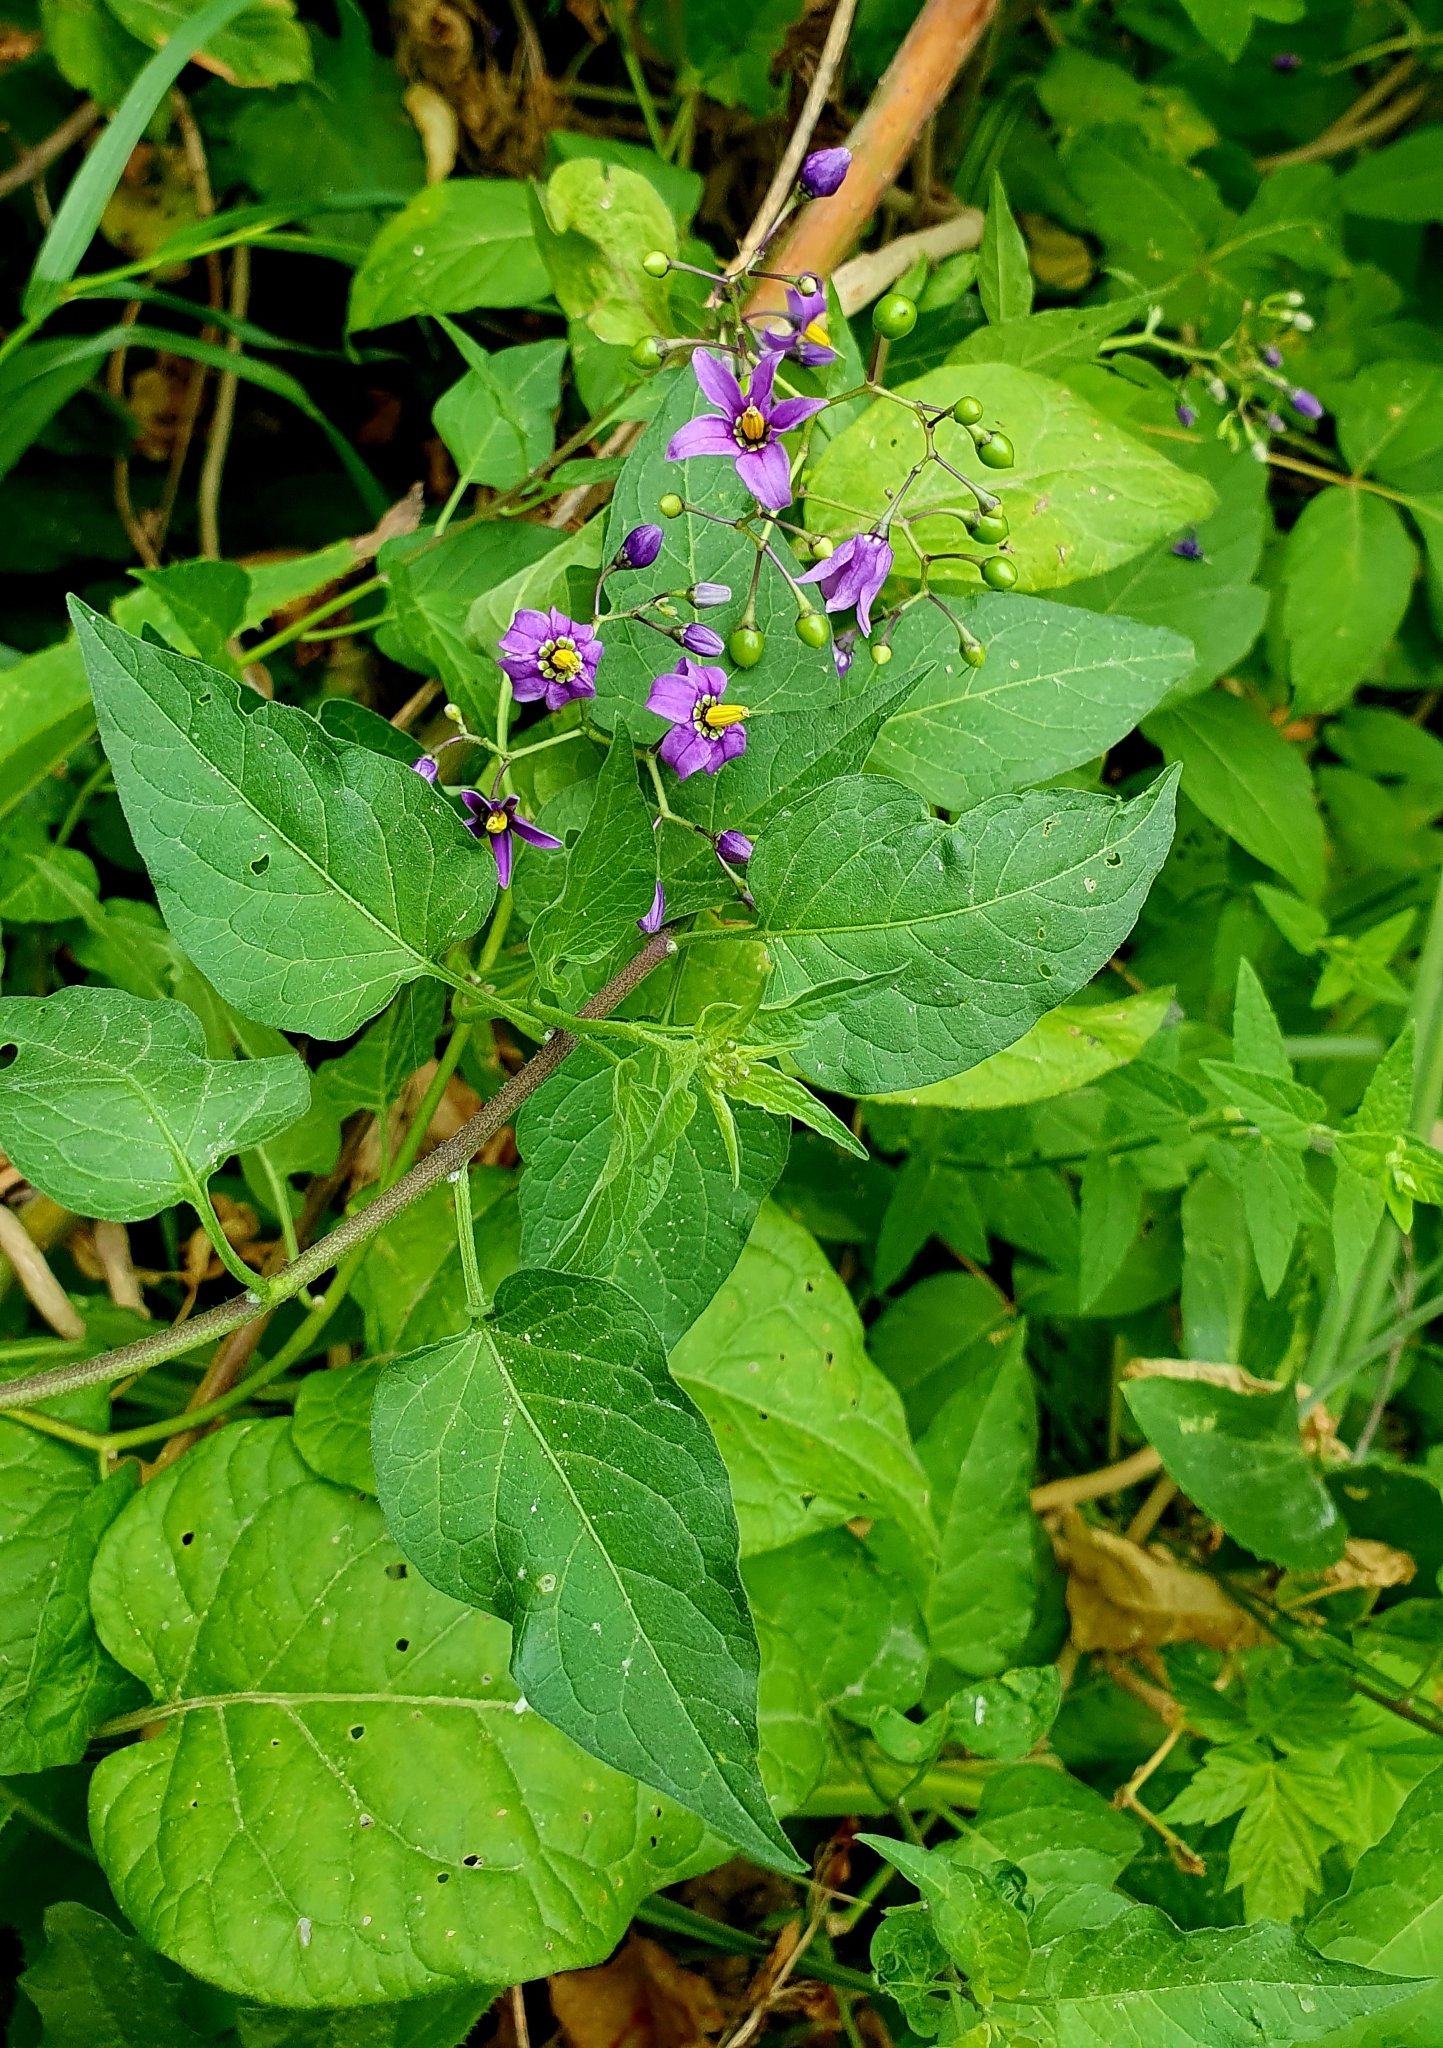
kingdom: Plantae
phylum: Tracheophyta
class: Magnoliopsida
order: Solanales
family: Solanaceae
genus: Solanum
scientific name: Solanum dulcamara
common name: Climbing nightshade
